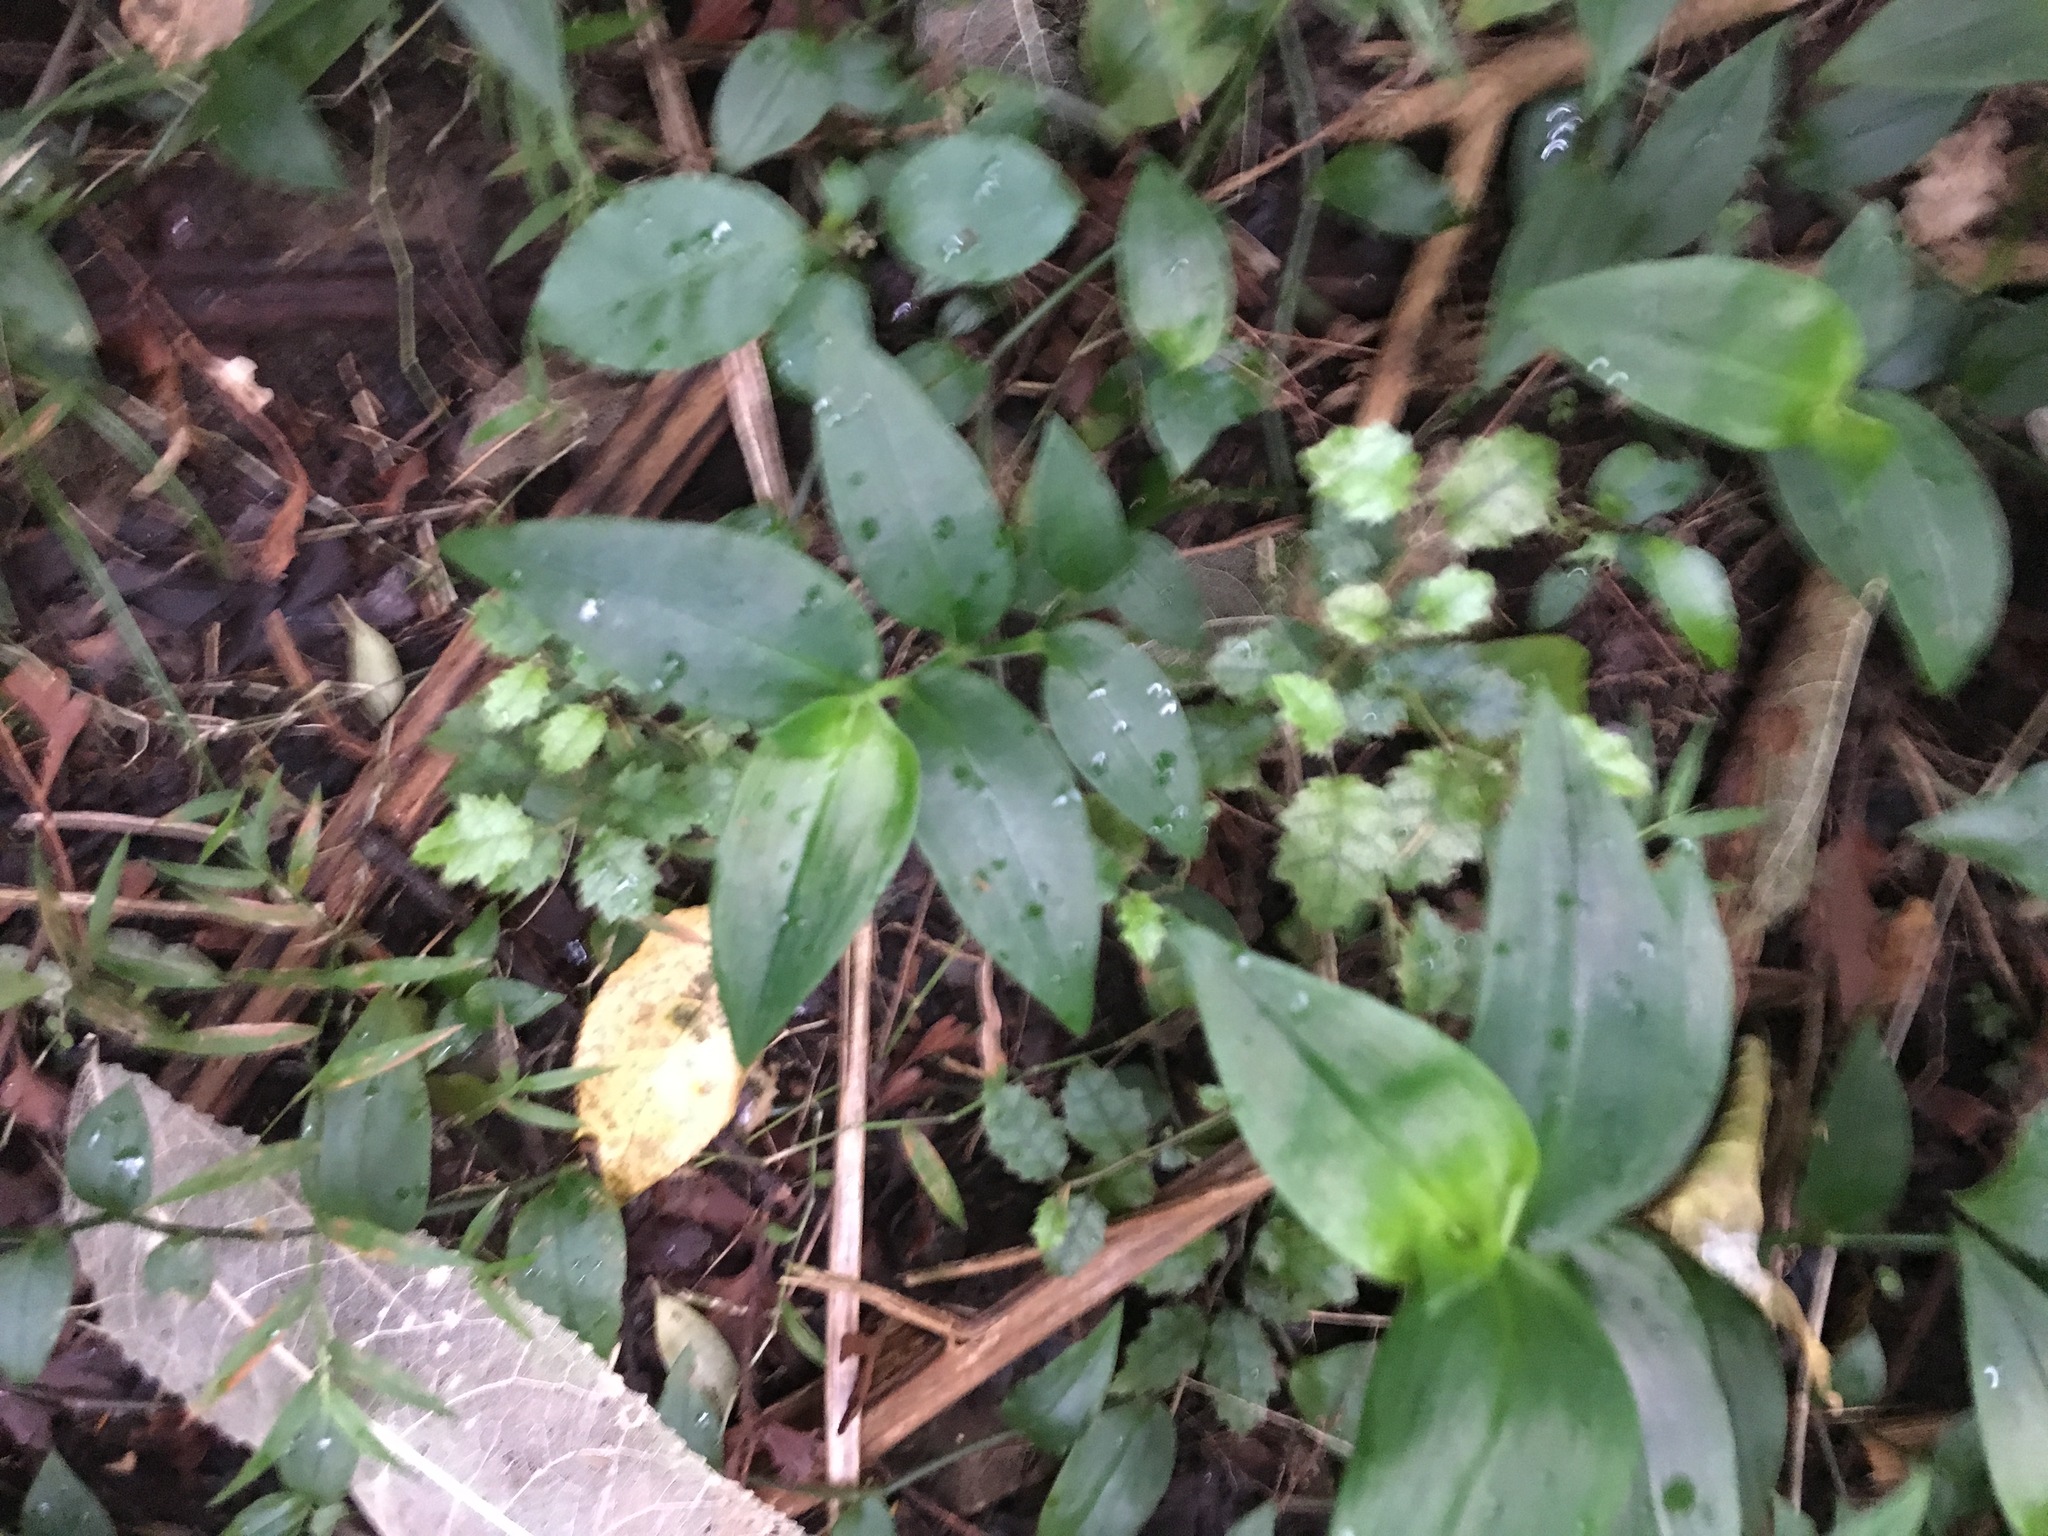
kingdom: Plantae
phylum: Tracheophyta
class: Magnoliopsida
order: Asterales
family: Rousseaceae
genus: Carpodetus
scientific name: Carpodetus serratus
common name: White mapau
